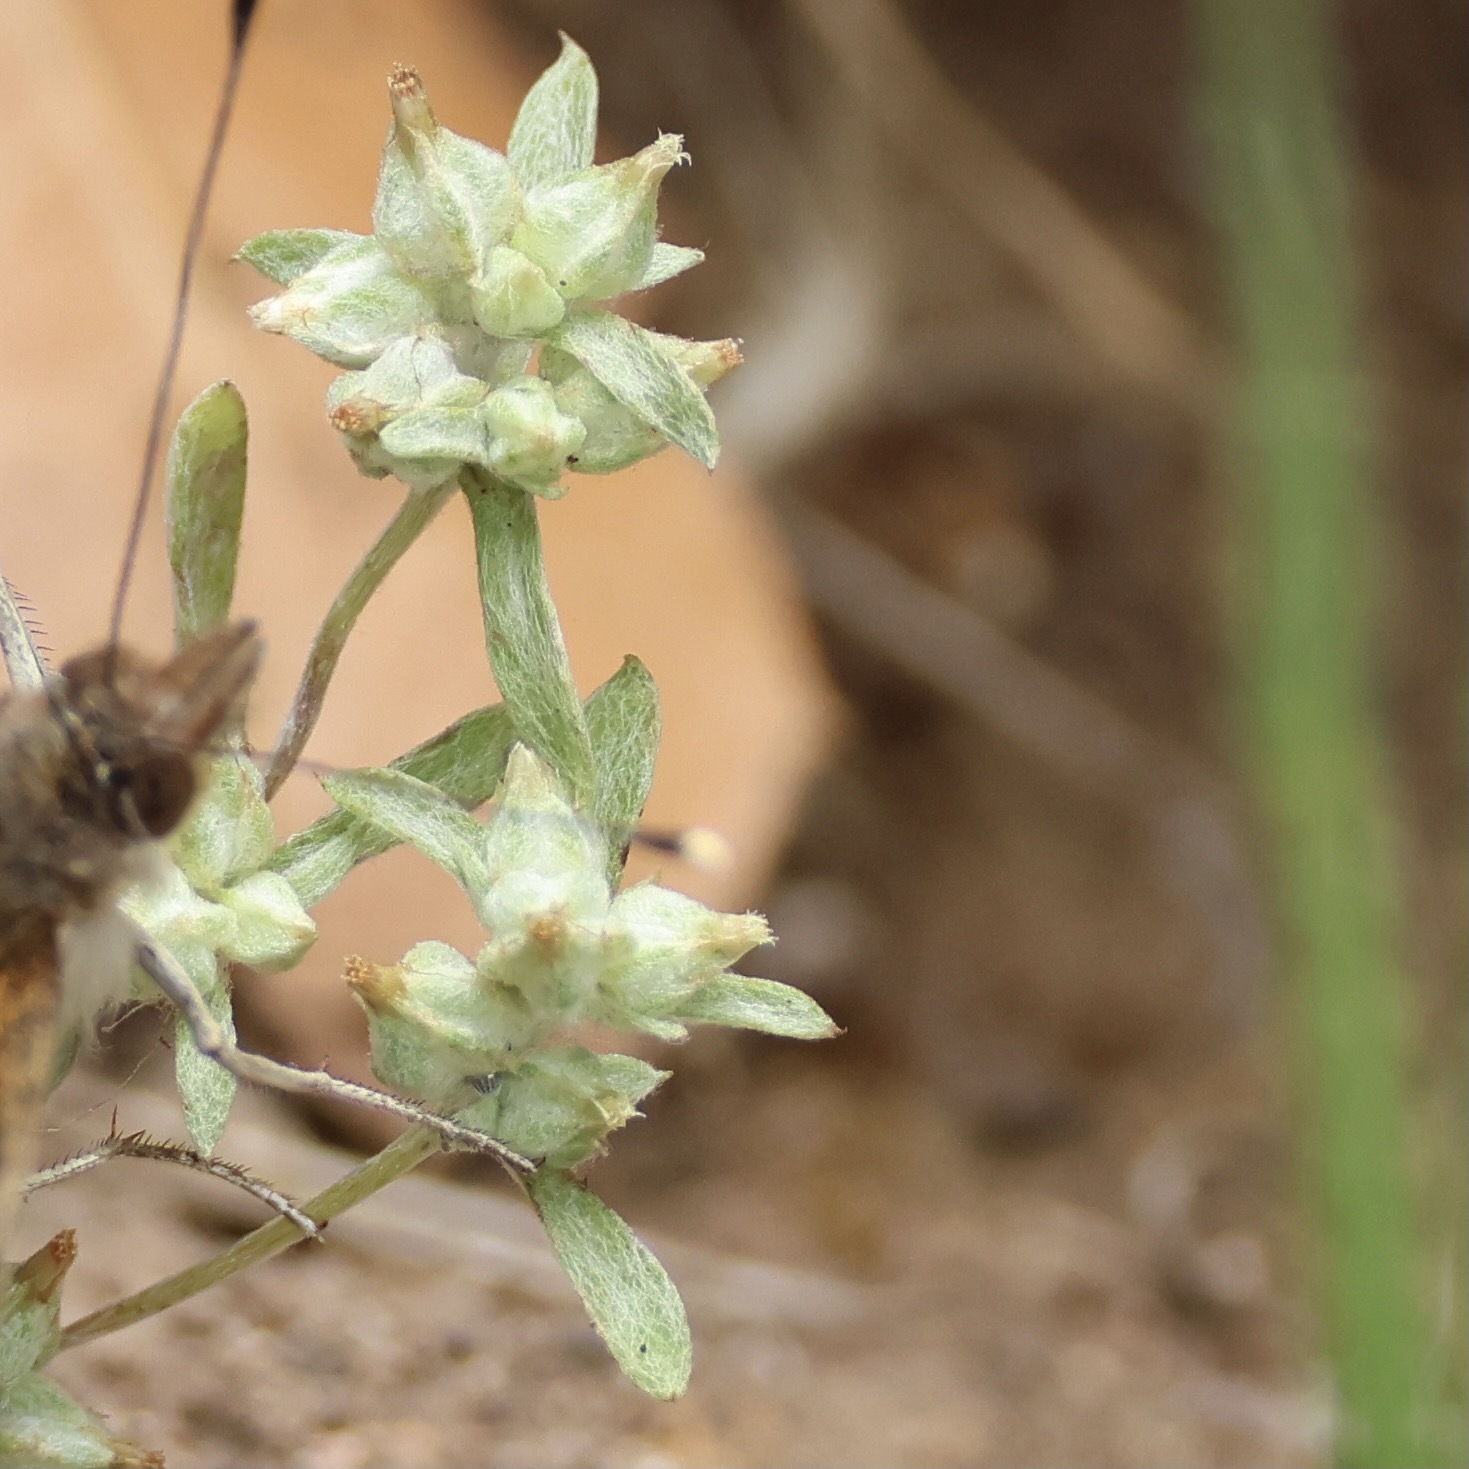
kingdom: Plantae
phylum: Tracheophyta
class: Magnoliopsida
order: Asterales
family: Asteraceae
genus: Logfia
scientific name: Logfia californica
